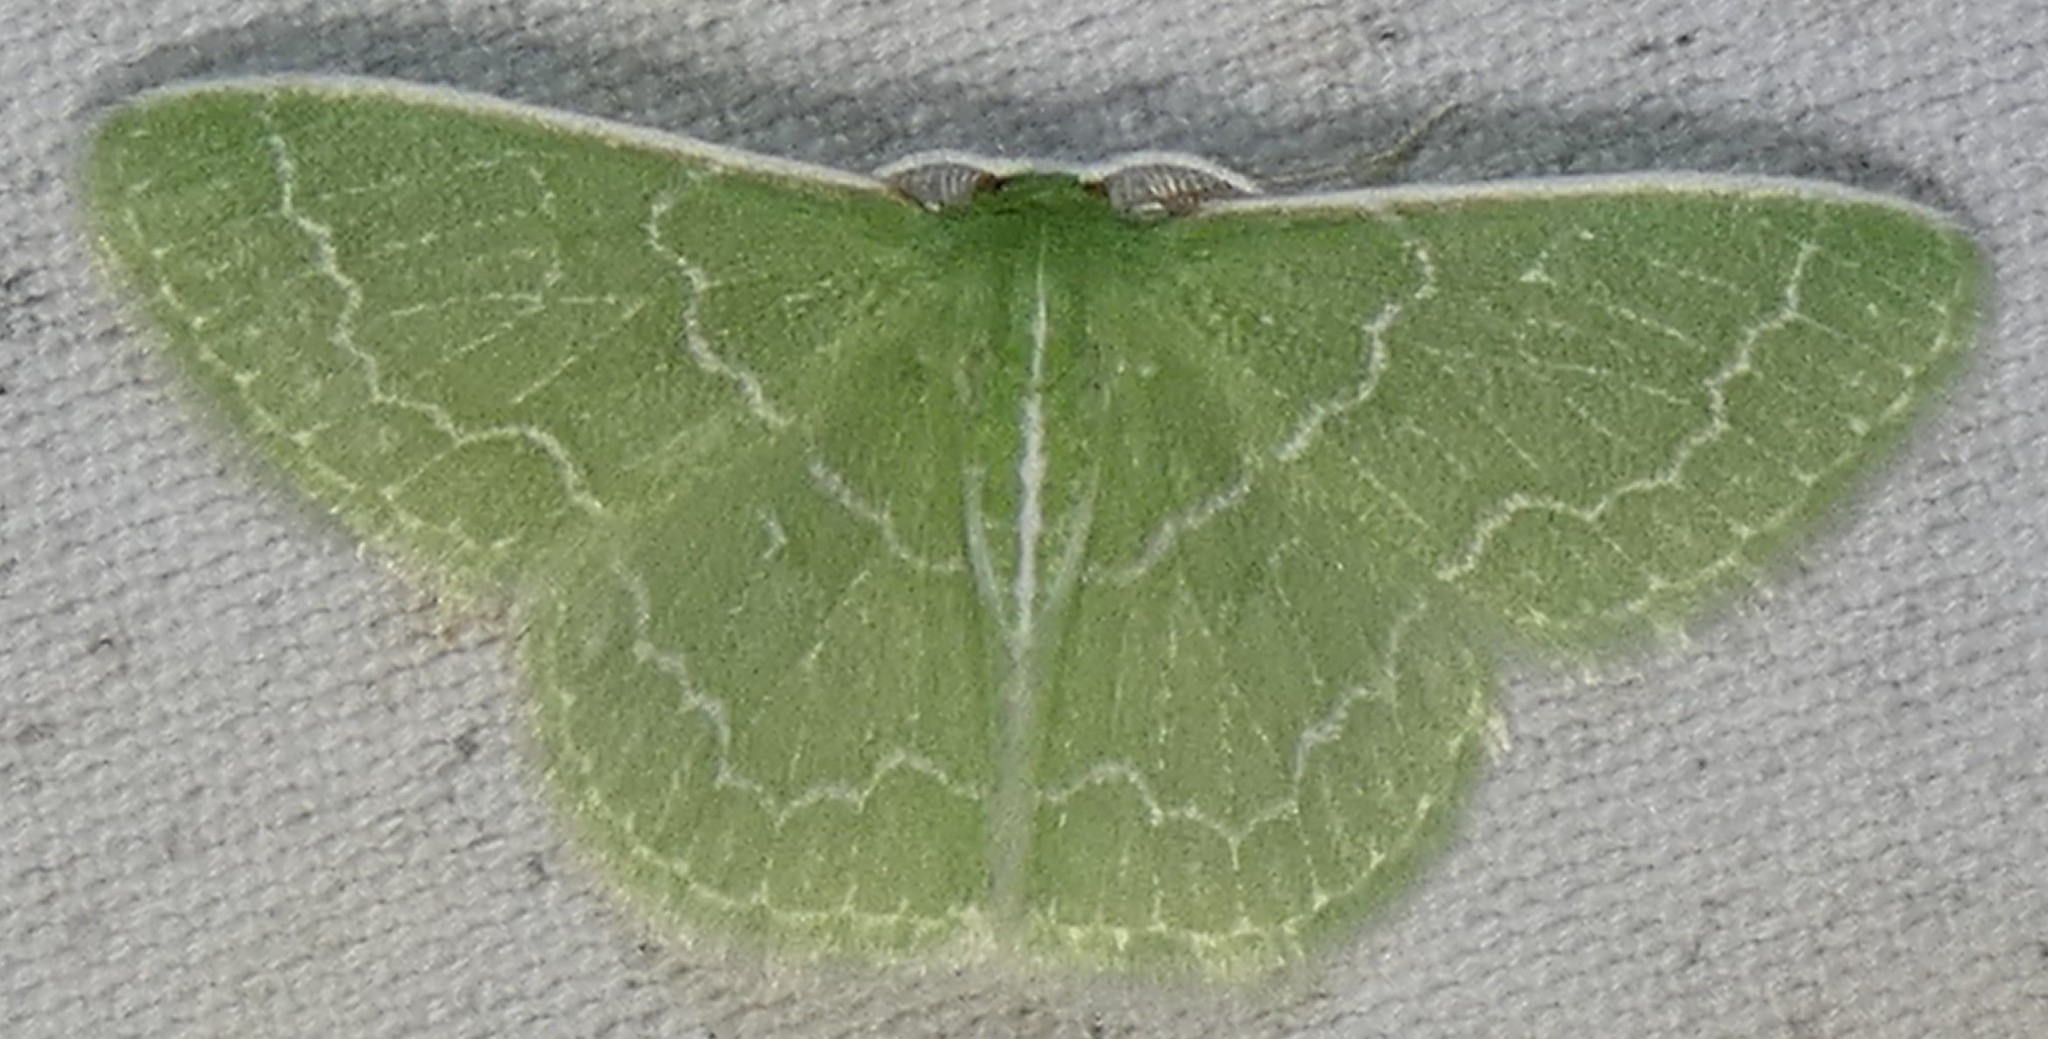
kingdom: Animalia
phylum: Arthropoda
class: Insecta
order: Lepidoptera
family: Geometridae
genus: Synchlora
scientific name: Synchlora frondaria
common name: Southern emerald
